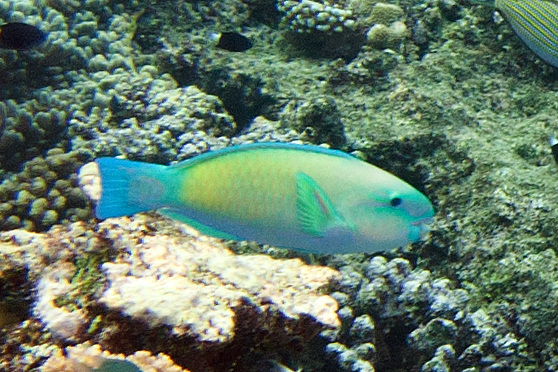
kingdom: Animalia
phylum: Chordata
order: Perciformes
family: Scaridae
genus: Chlorurus
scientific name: Chlorurus spilurus
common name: Bullethead parrotfish
